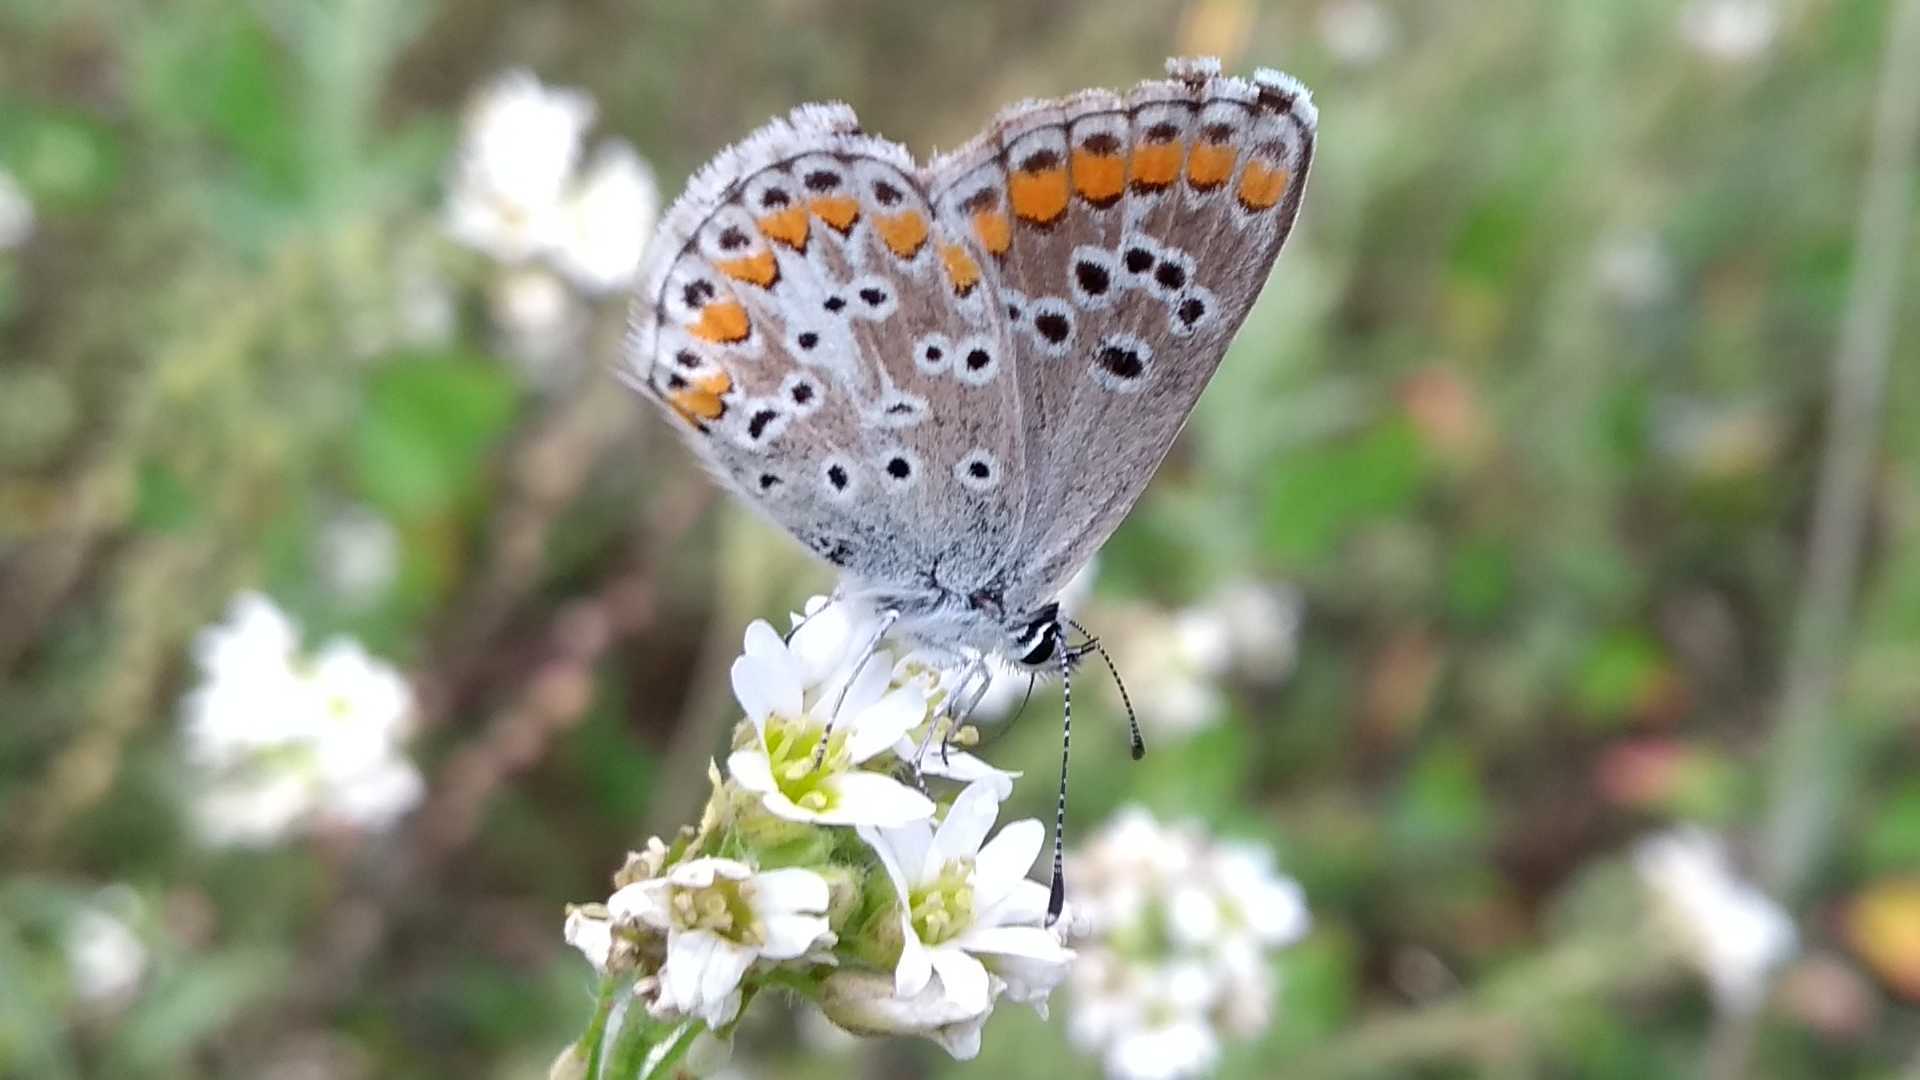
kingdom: Animalia
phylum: Arthropoda
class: Insecta
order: Lepidoptera
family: Lycaenidae
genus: Aricia
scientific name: Aricia agestis
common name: Brown argus
